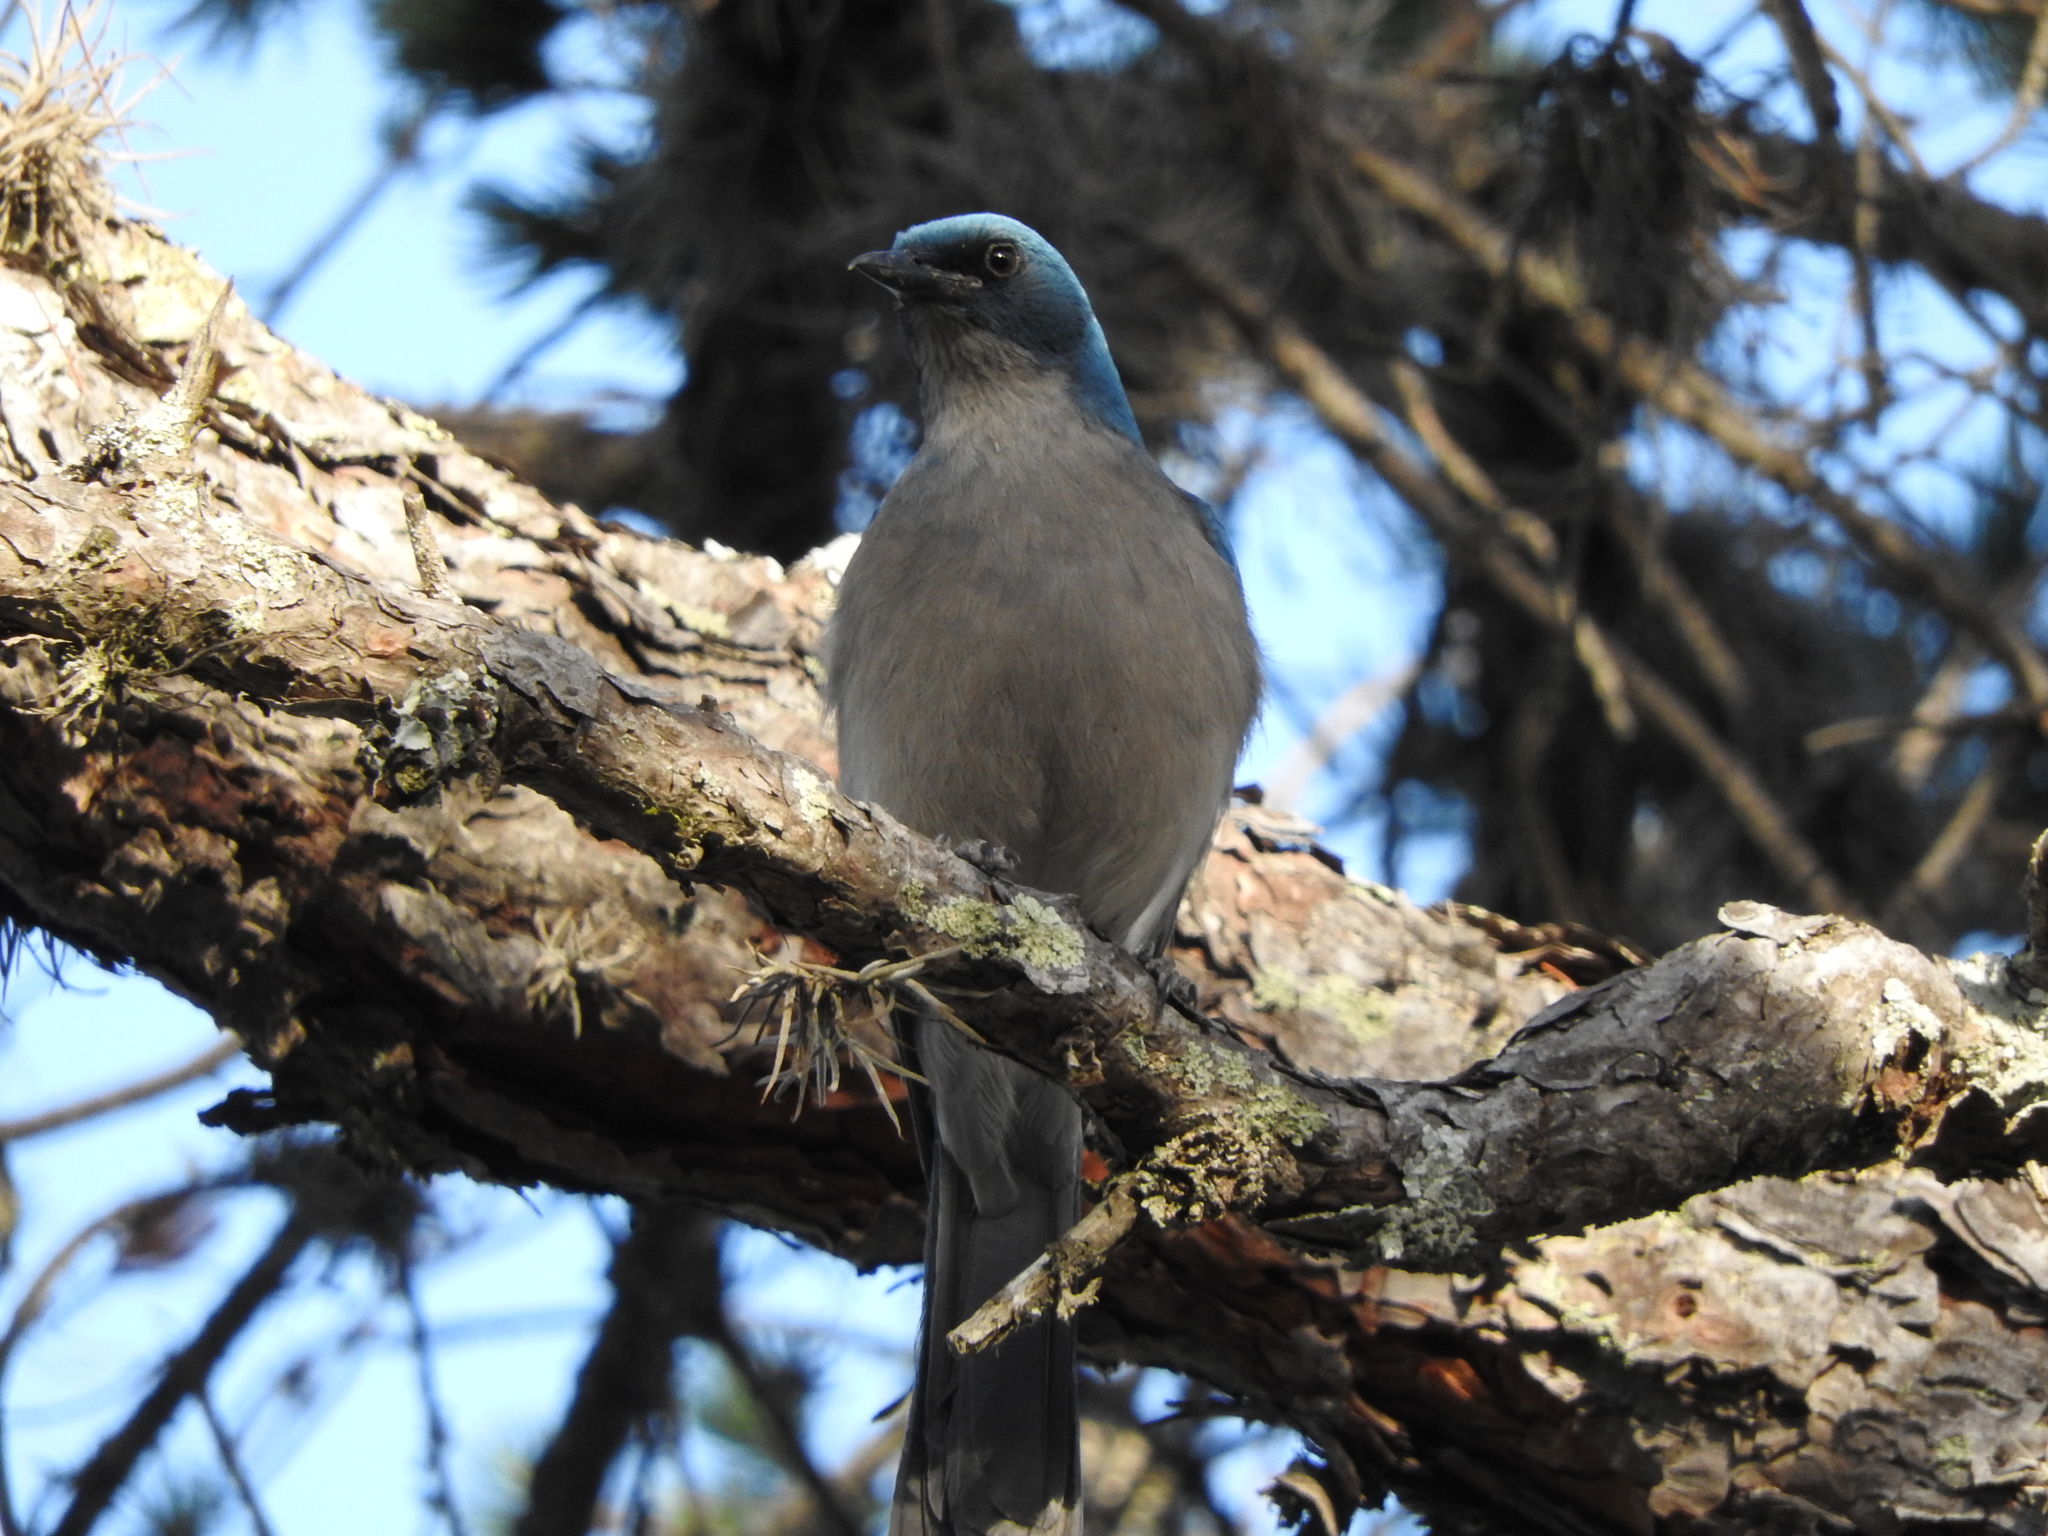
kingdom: Animalia
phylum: Chordata
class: Aves
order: Passeriformes
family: Corvidae
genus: Aphelocoma
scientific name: Aphelocoma wollweberi
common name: Mexican jay
